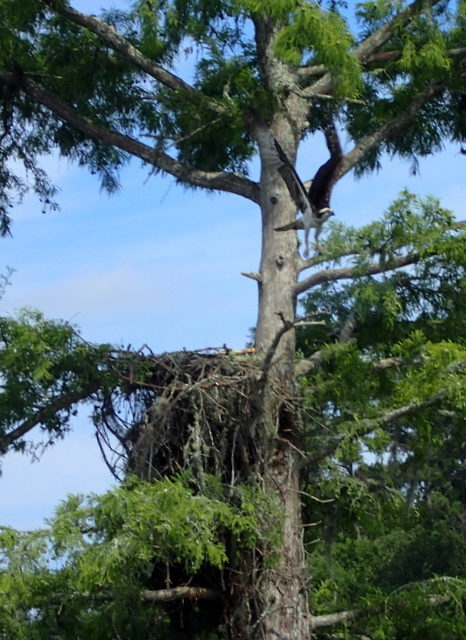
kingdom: Animalia
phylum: Chordata
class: Aves
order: Accipitriformes
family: Pandionidae
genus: Pandion
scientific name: Pandion haliaetus
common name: Osprey
